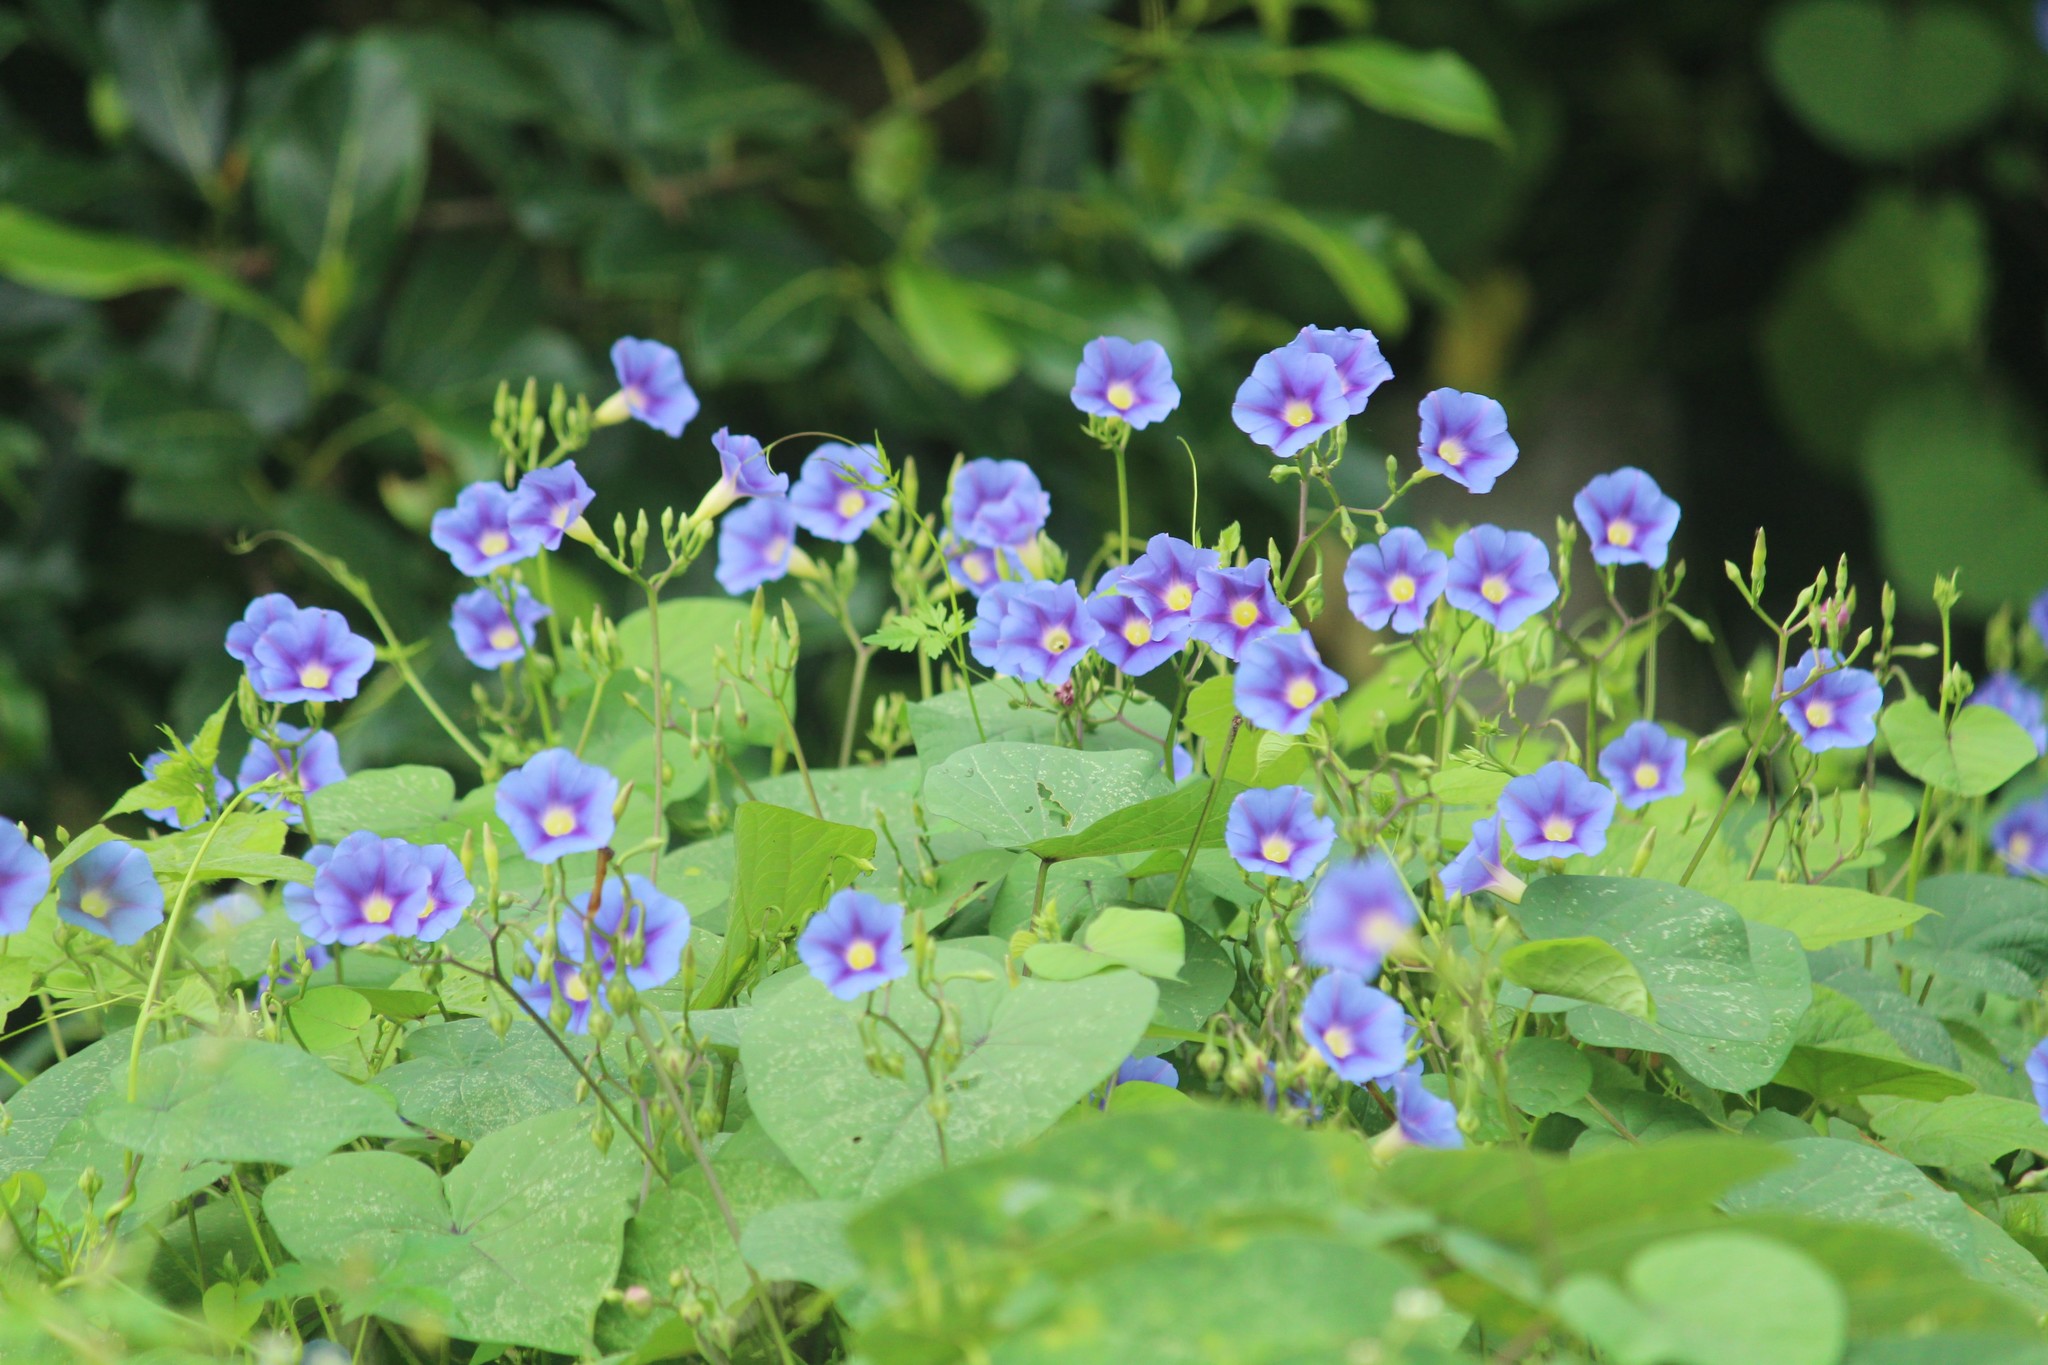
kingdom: Plantae
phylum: Tracheophyta
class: Magnoliopsida
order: Solanales
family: Convolvulaceae
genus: Ipomoea
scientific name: Ipomoea parasitica
